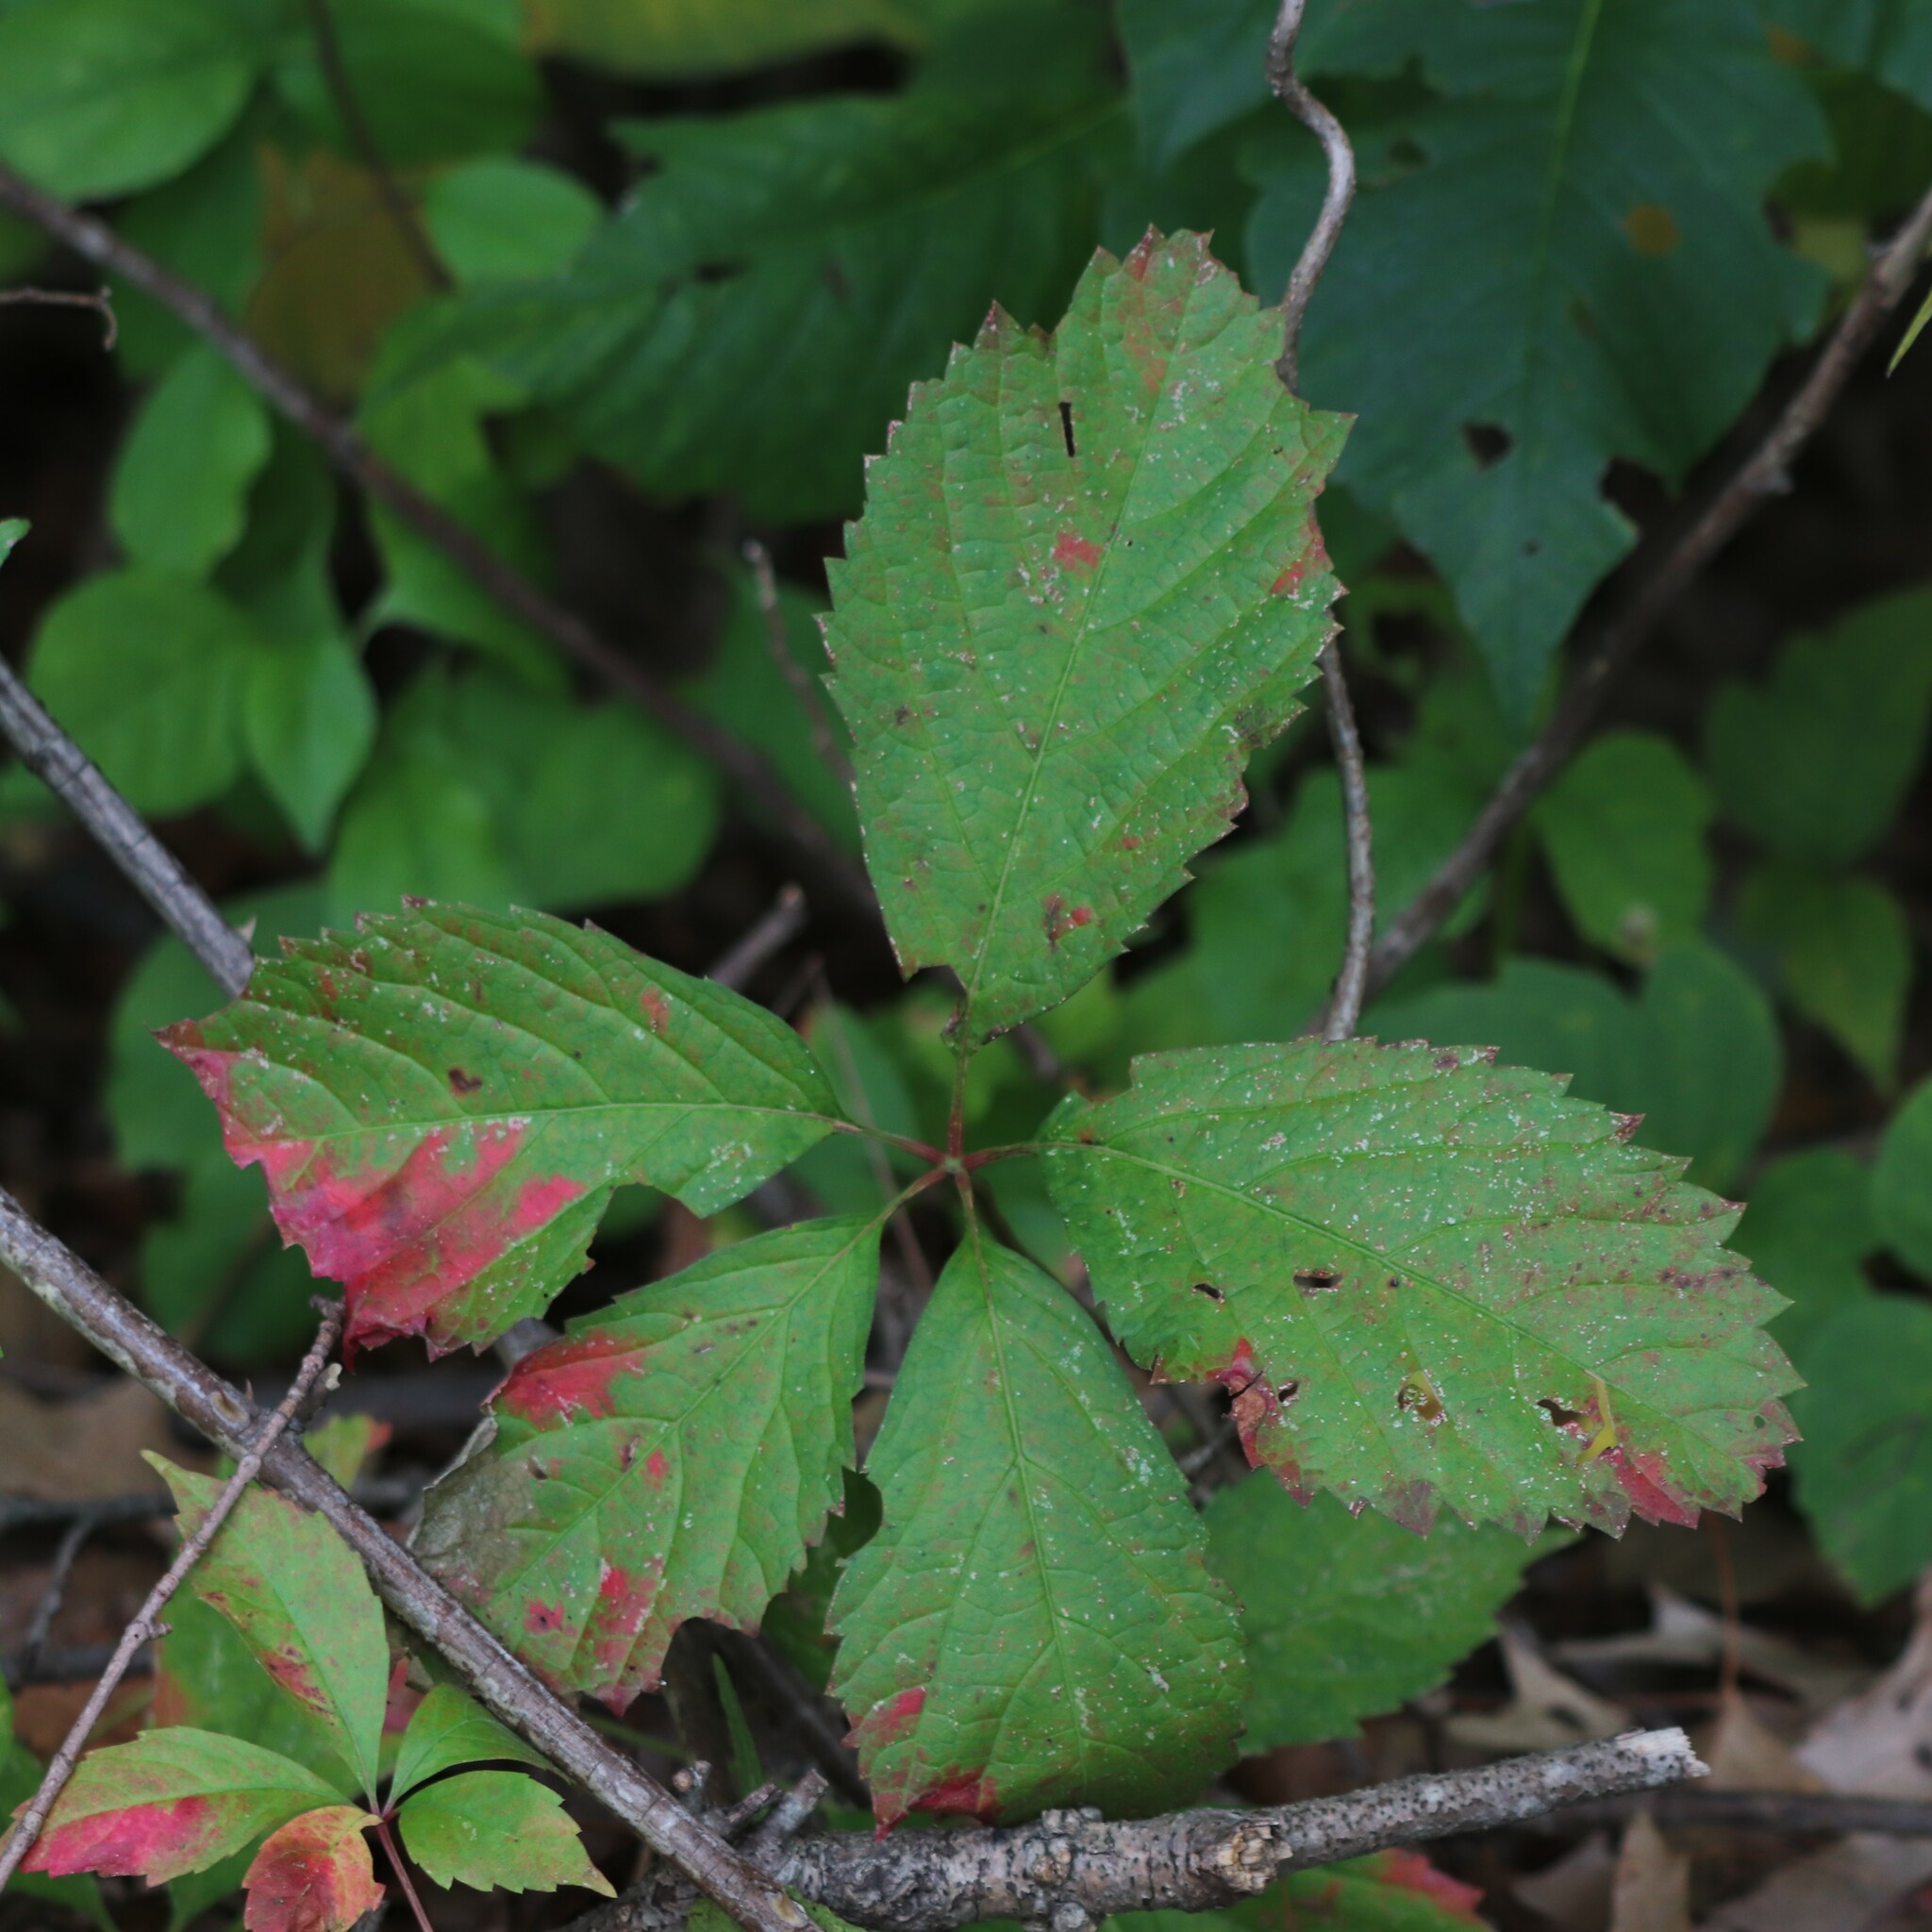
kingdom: Plantae
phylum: Tracheophyta
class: Magnoliopsida
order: Vitales
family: Vitaceae
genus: Parthenocissus
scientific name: Parthenocissus inserta
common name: False virginia-creeper
